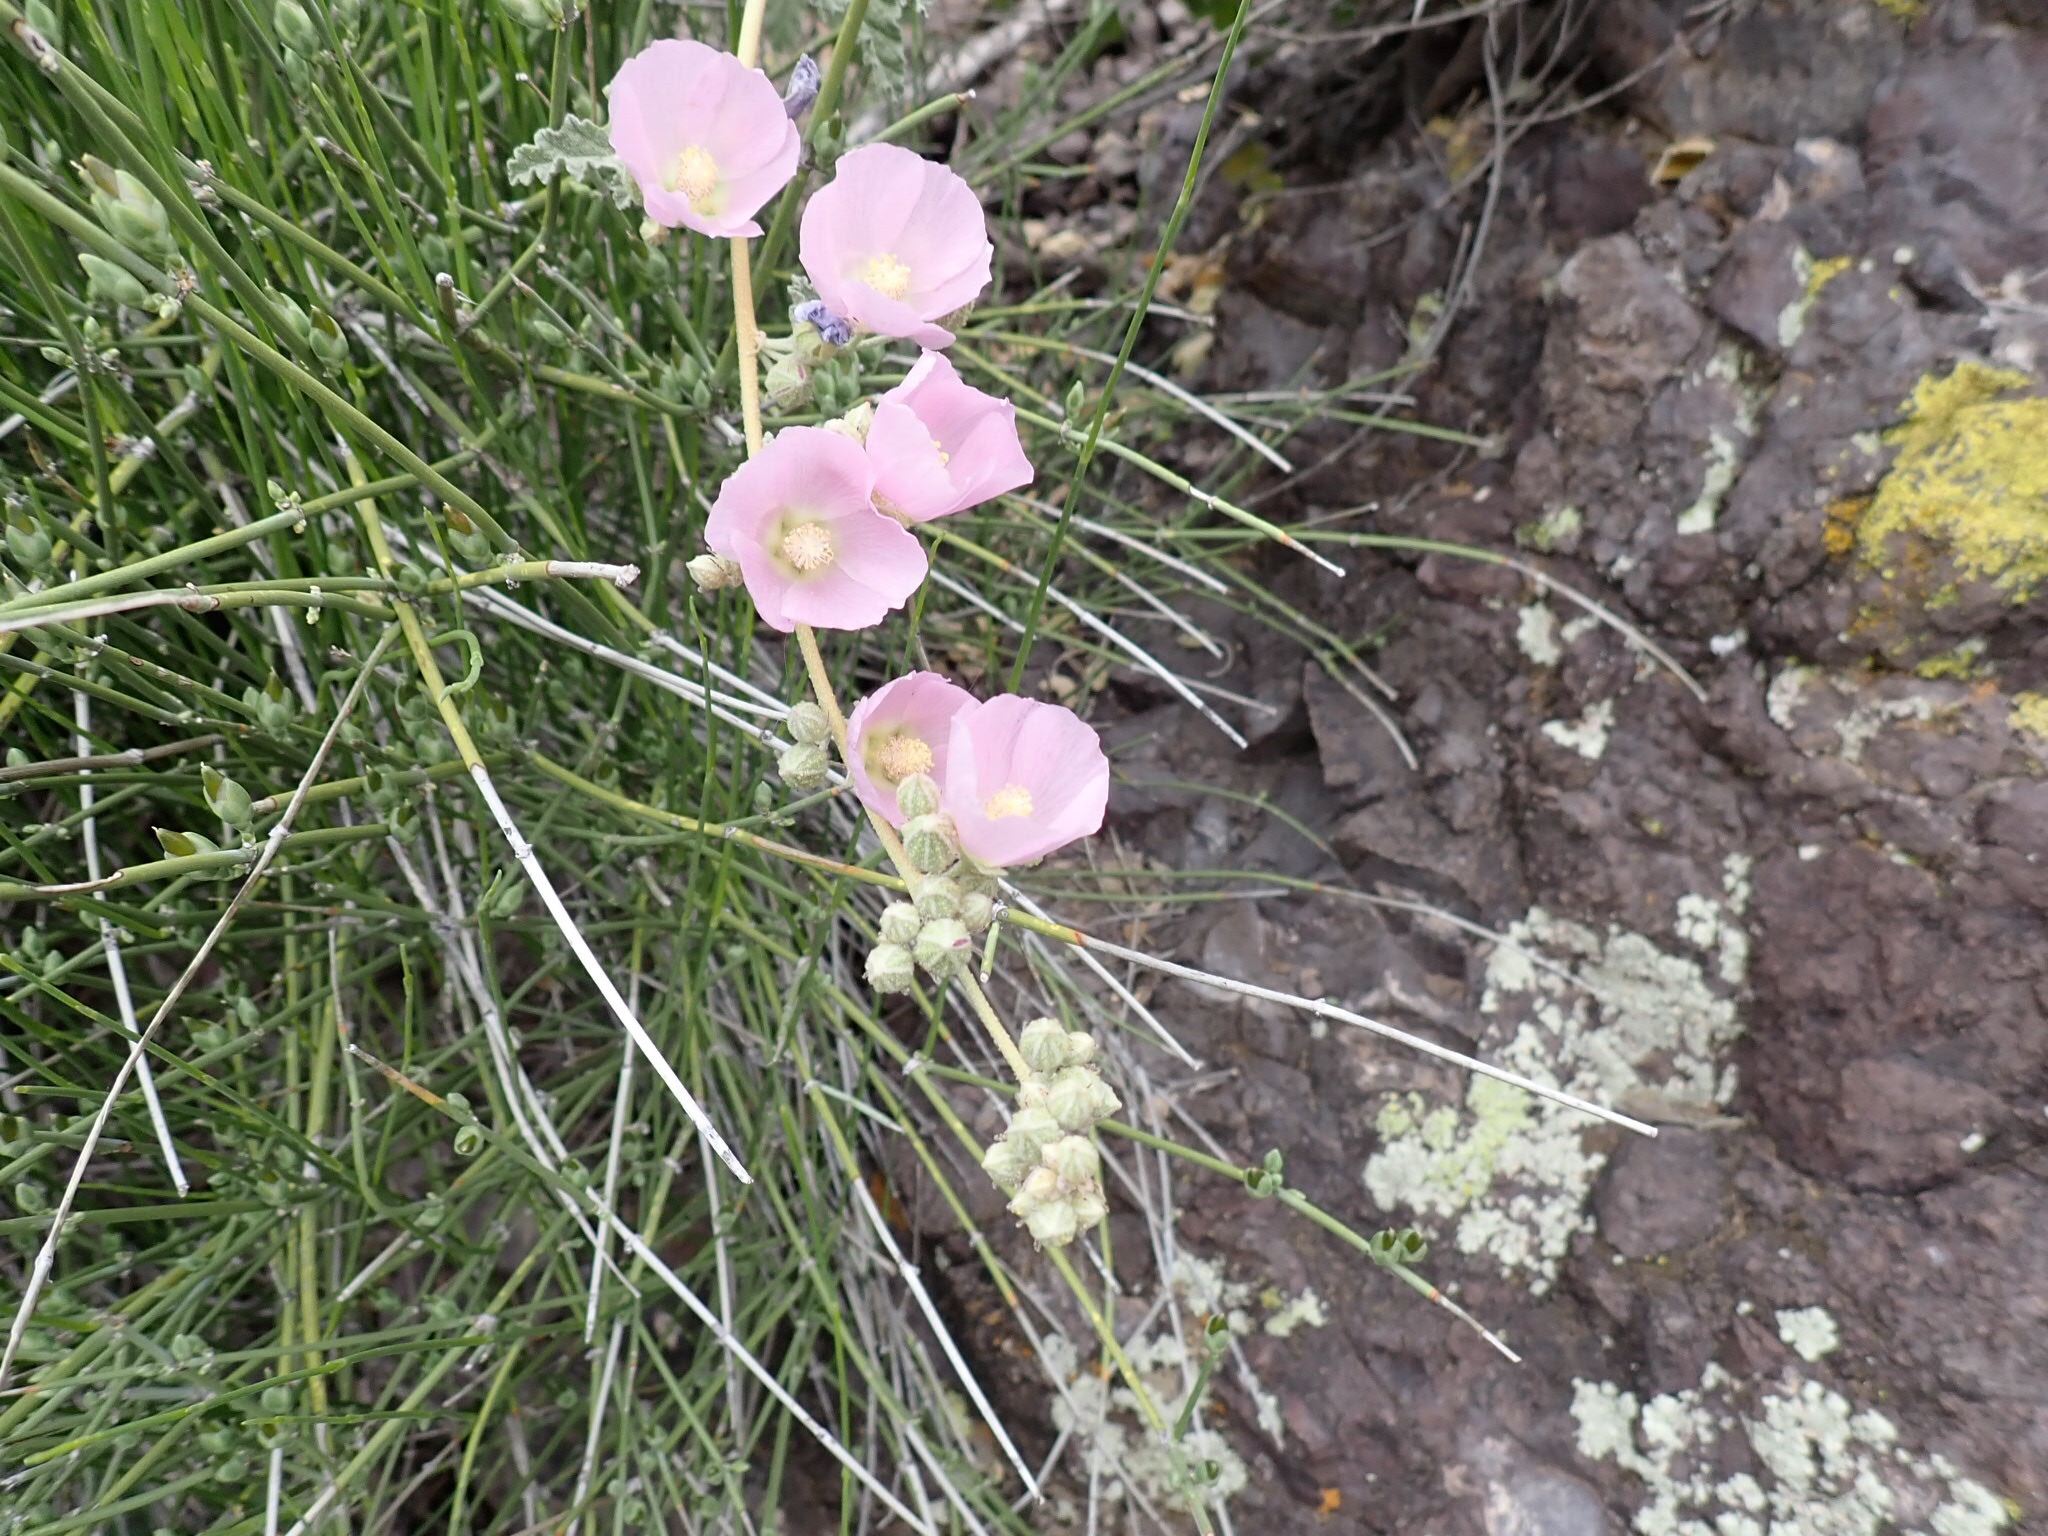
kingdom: Plantae
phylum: Tracheophyta
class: Magnoliopsida
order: Malvales
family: Malvaceae
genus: Sphaeralcea
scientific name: Sphaeralcea ambigua
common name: Apricot globe-mallow
